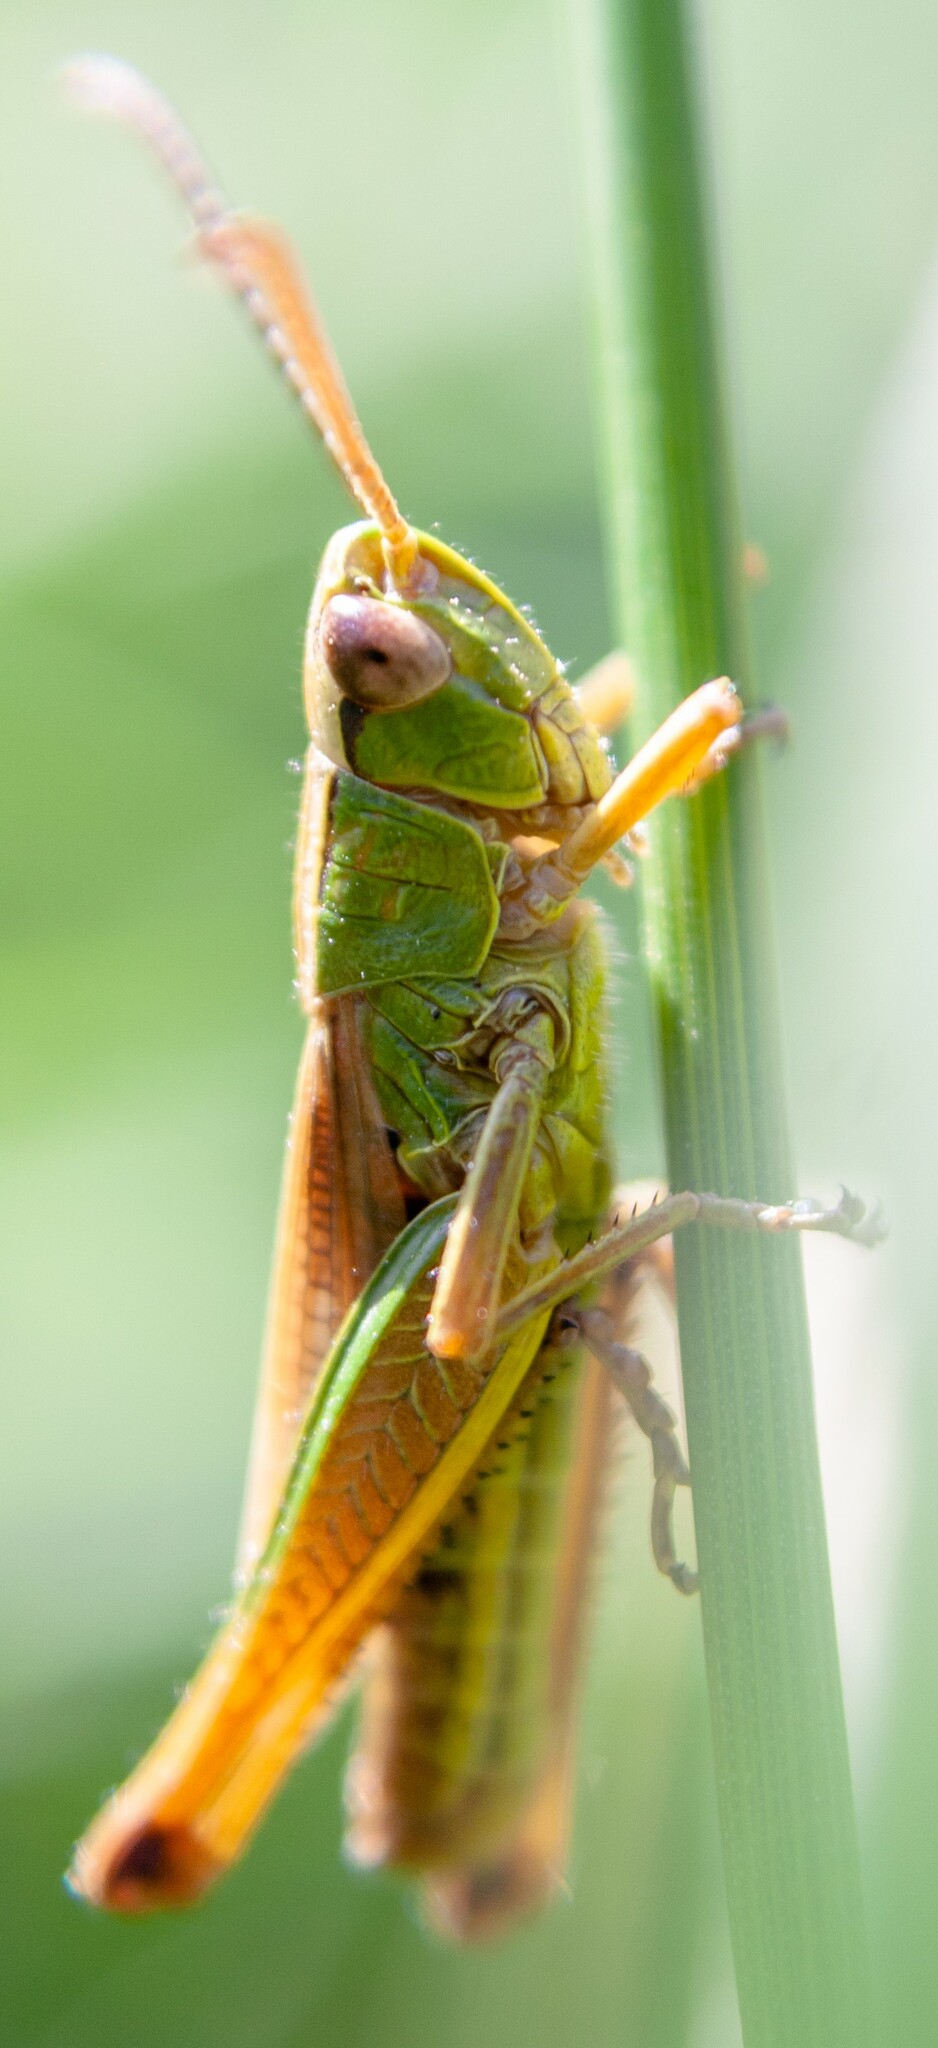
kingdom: Animalia
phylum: Arthropoda
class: Insecta
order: Orthoptera
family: Acrididae
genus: Pseudochorthippus
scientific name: Pseudochorthippus parallelus
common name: Meadow grasshopper
